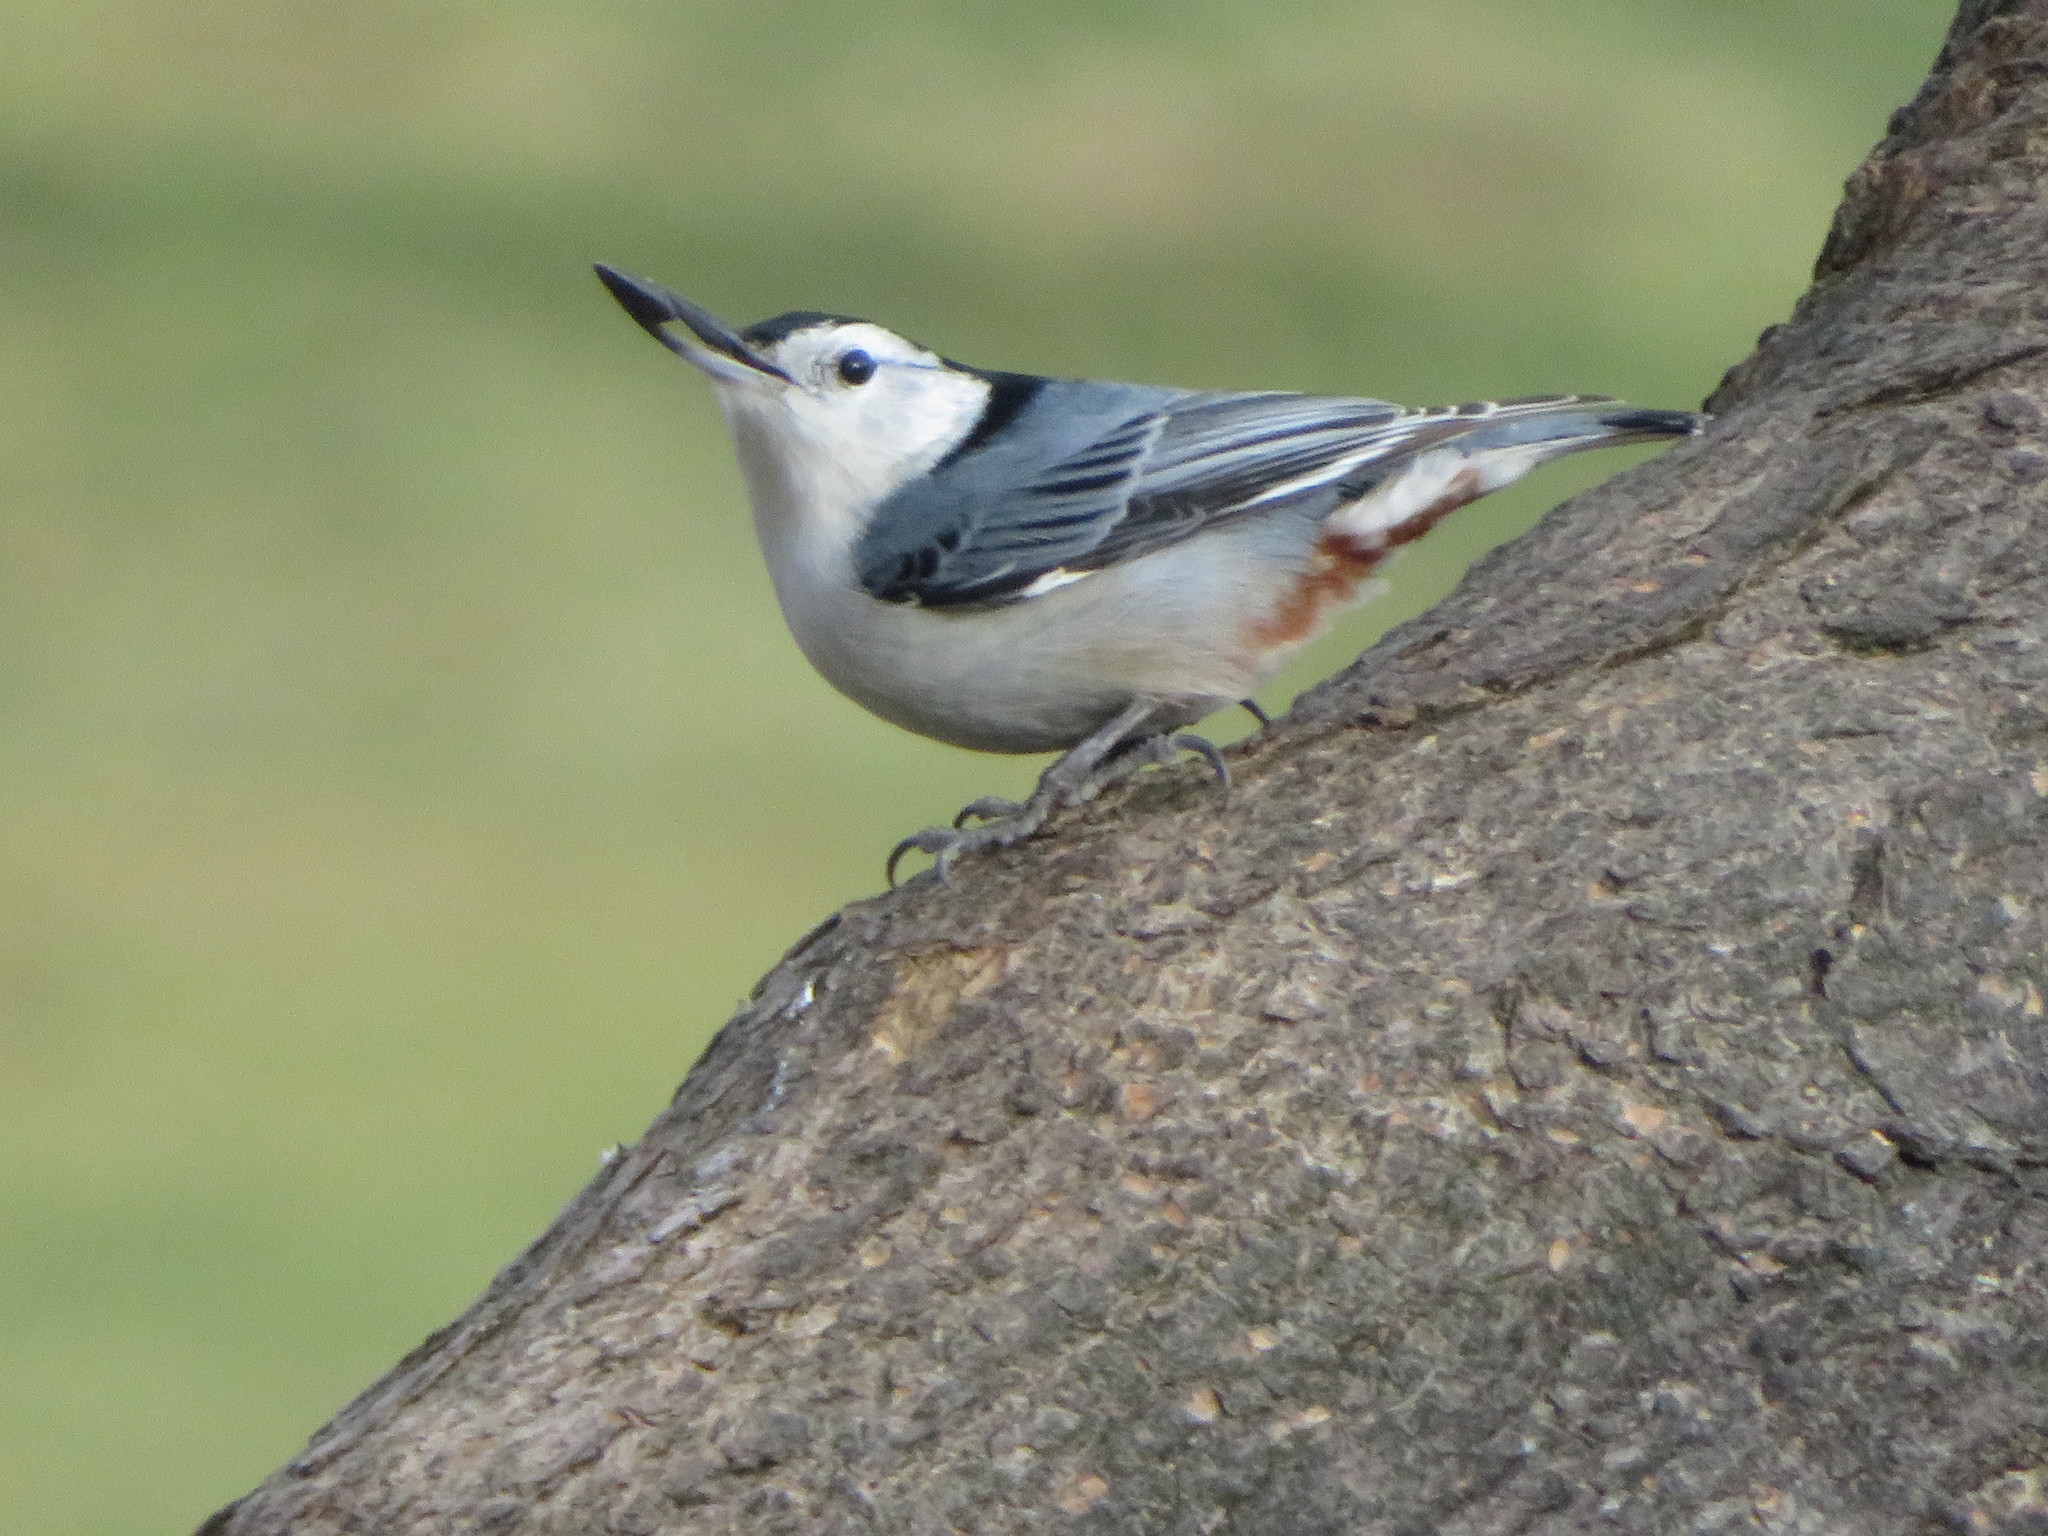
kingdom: Animalia
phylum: Chordata
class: Aves
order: Passeriformes
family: Sittidae
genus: Sitta
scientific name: Sitta carolinensis
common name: White-breasted nuthatch
